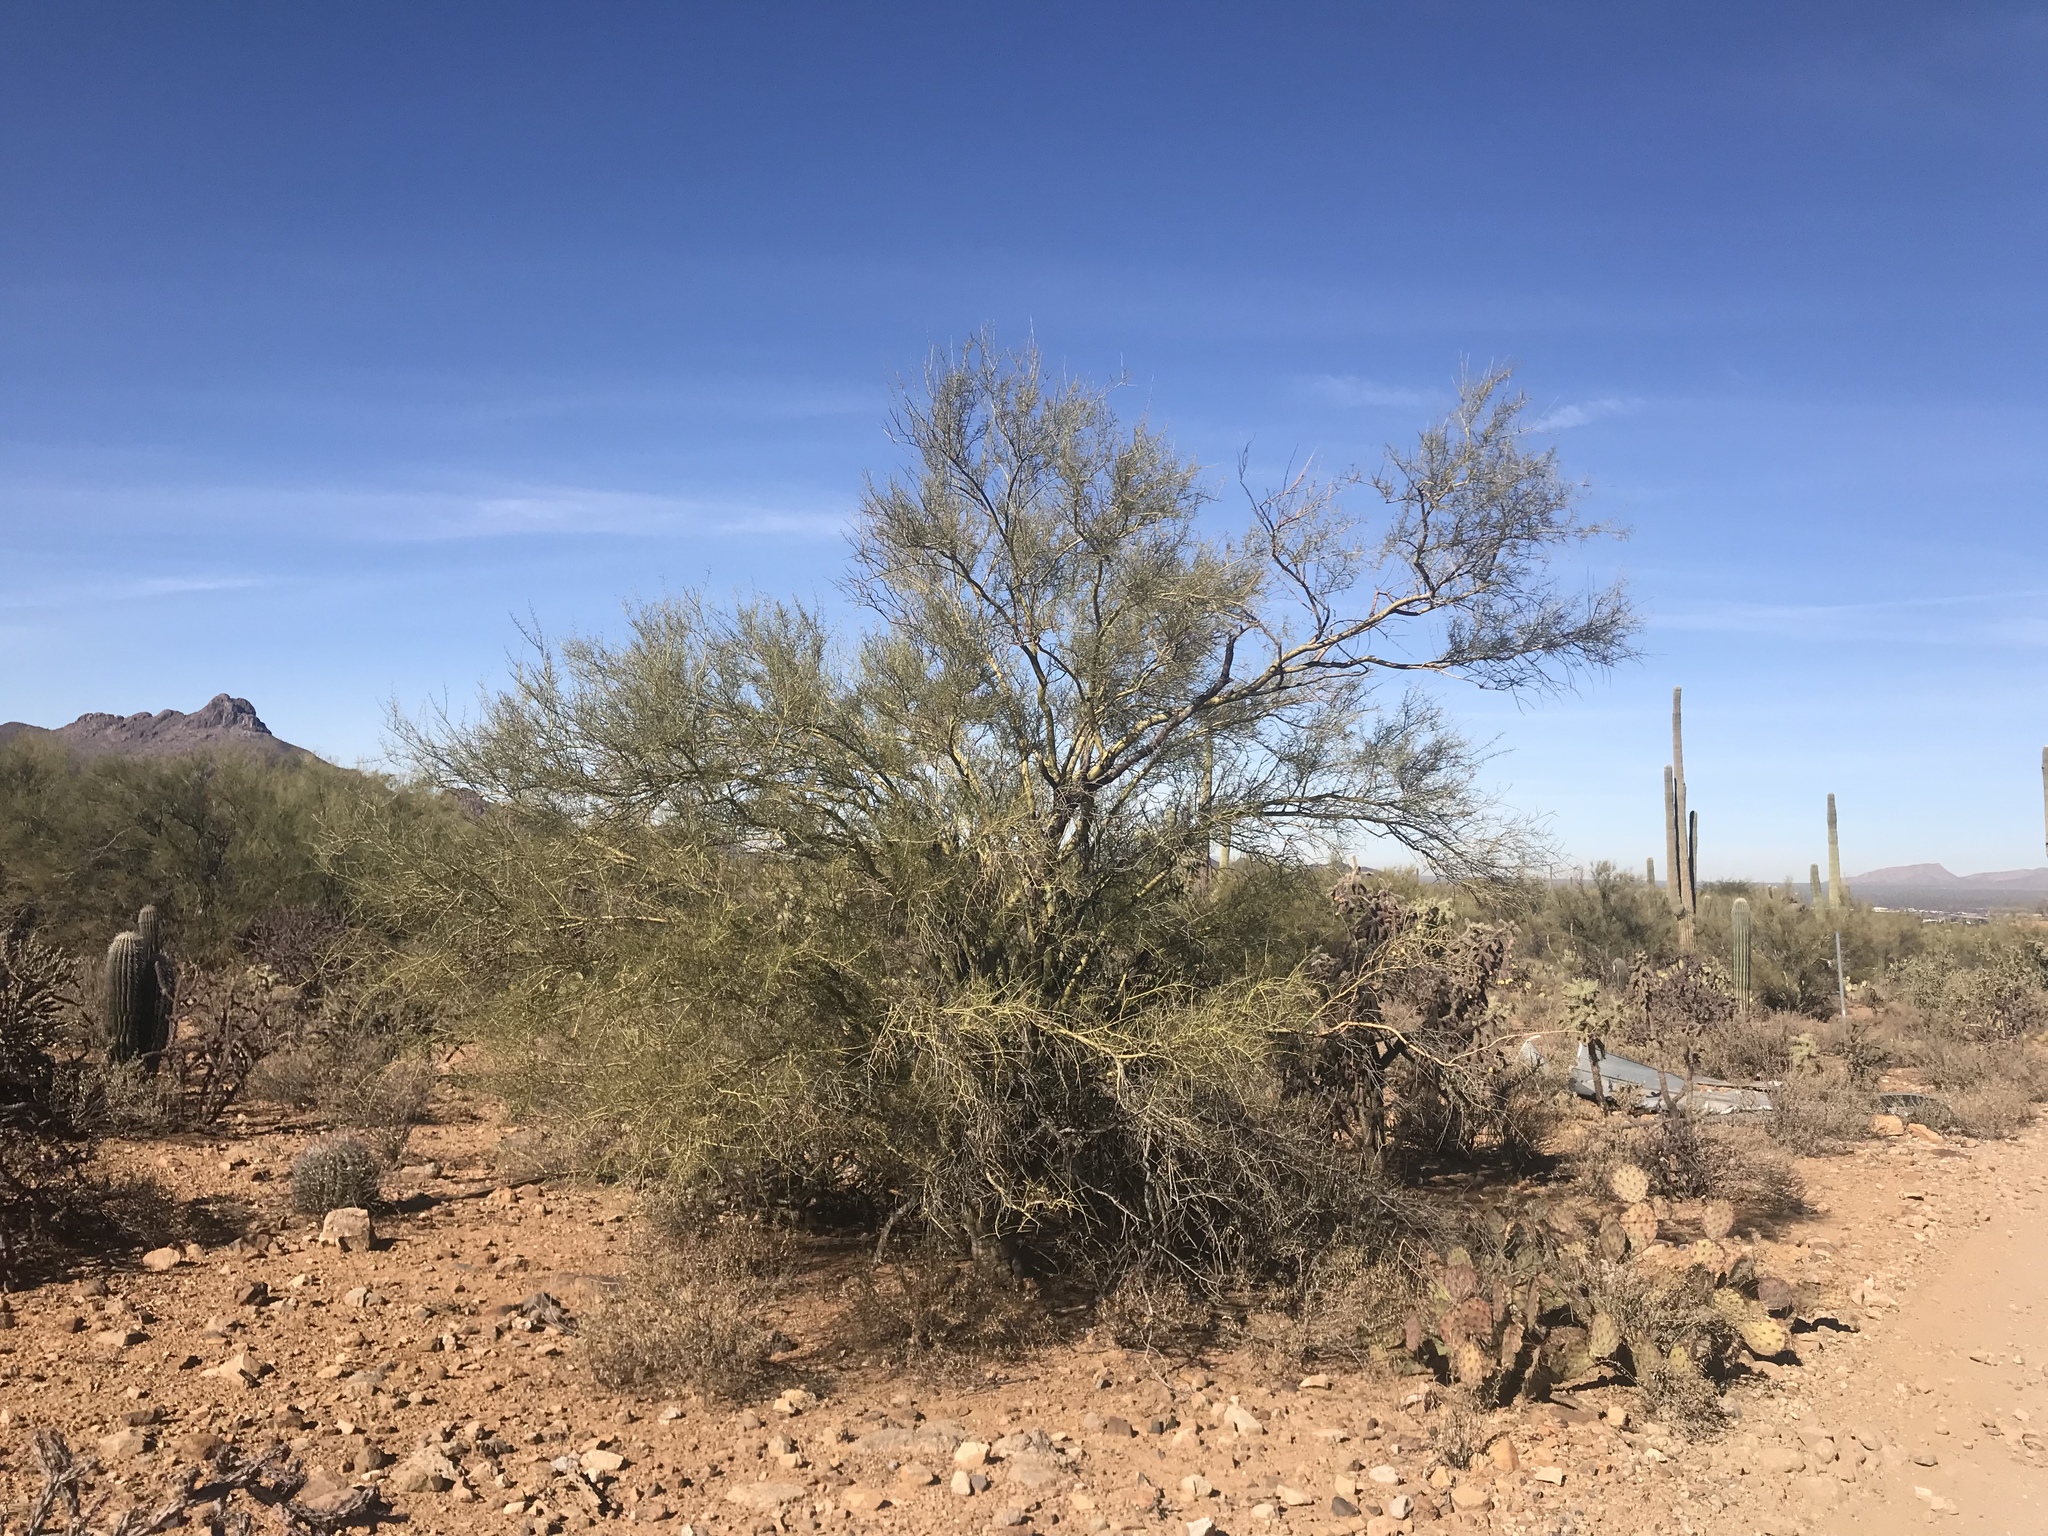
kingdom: Plantae
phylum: Tracheophyta
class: Magnoliopsida
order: Fabales
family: Fabaceae
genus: Parkinsonia
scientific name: Parkinsonia microphylla
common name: Yellow paloverde
